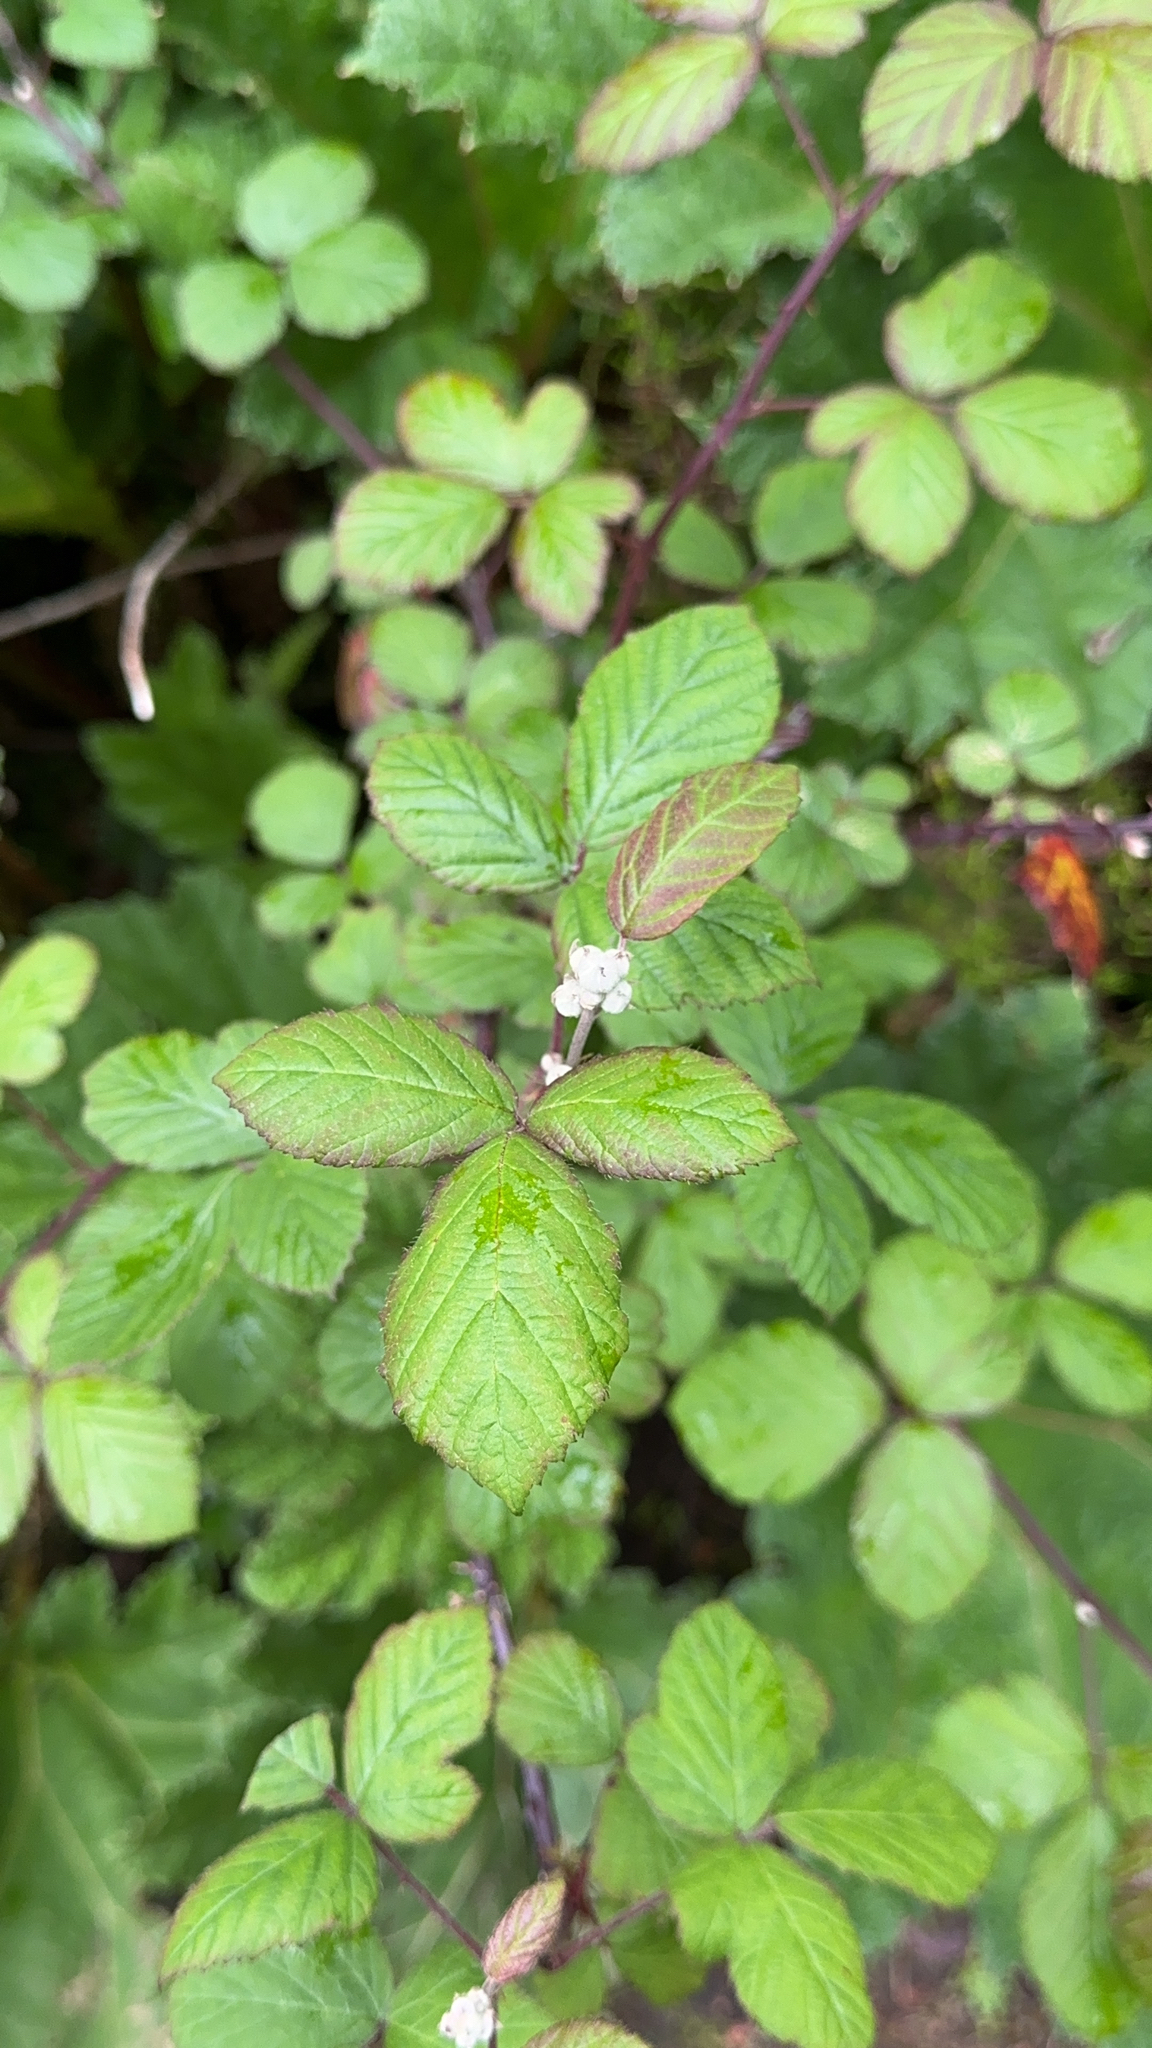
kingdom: Plantae
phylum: Tracheophyta
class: Magnoliopsida
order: Rosales
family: Rosaceae
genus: Rubus
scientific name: Rubus ulmifolius
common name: Elmleaf blackberry
